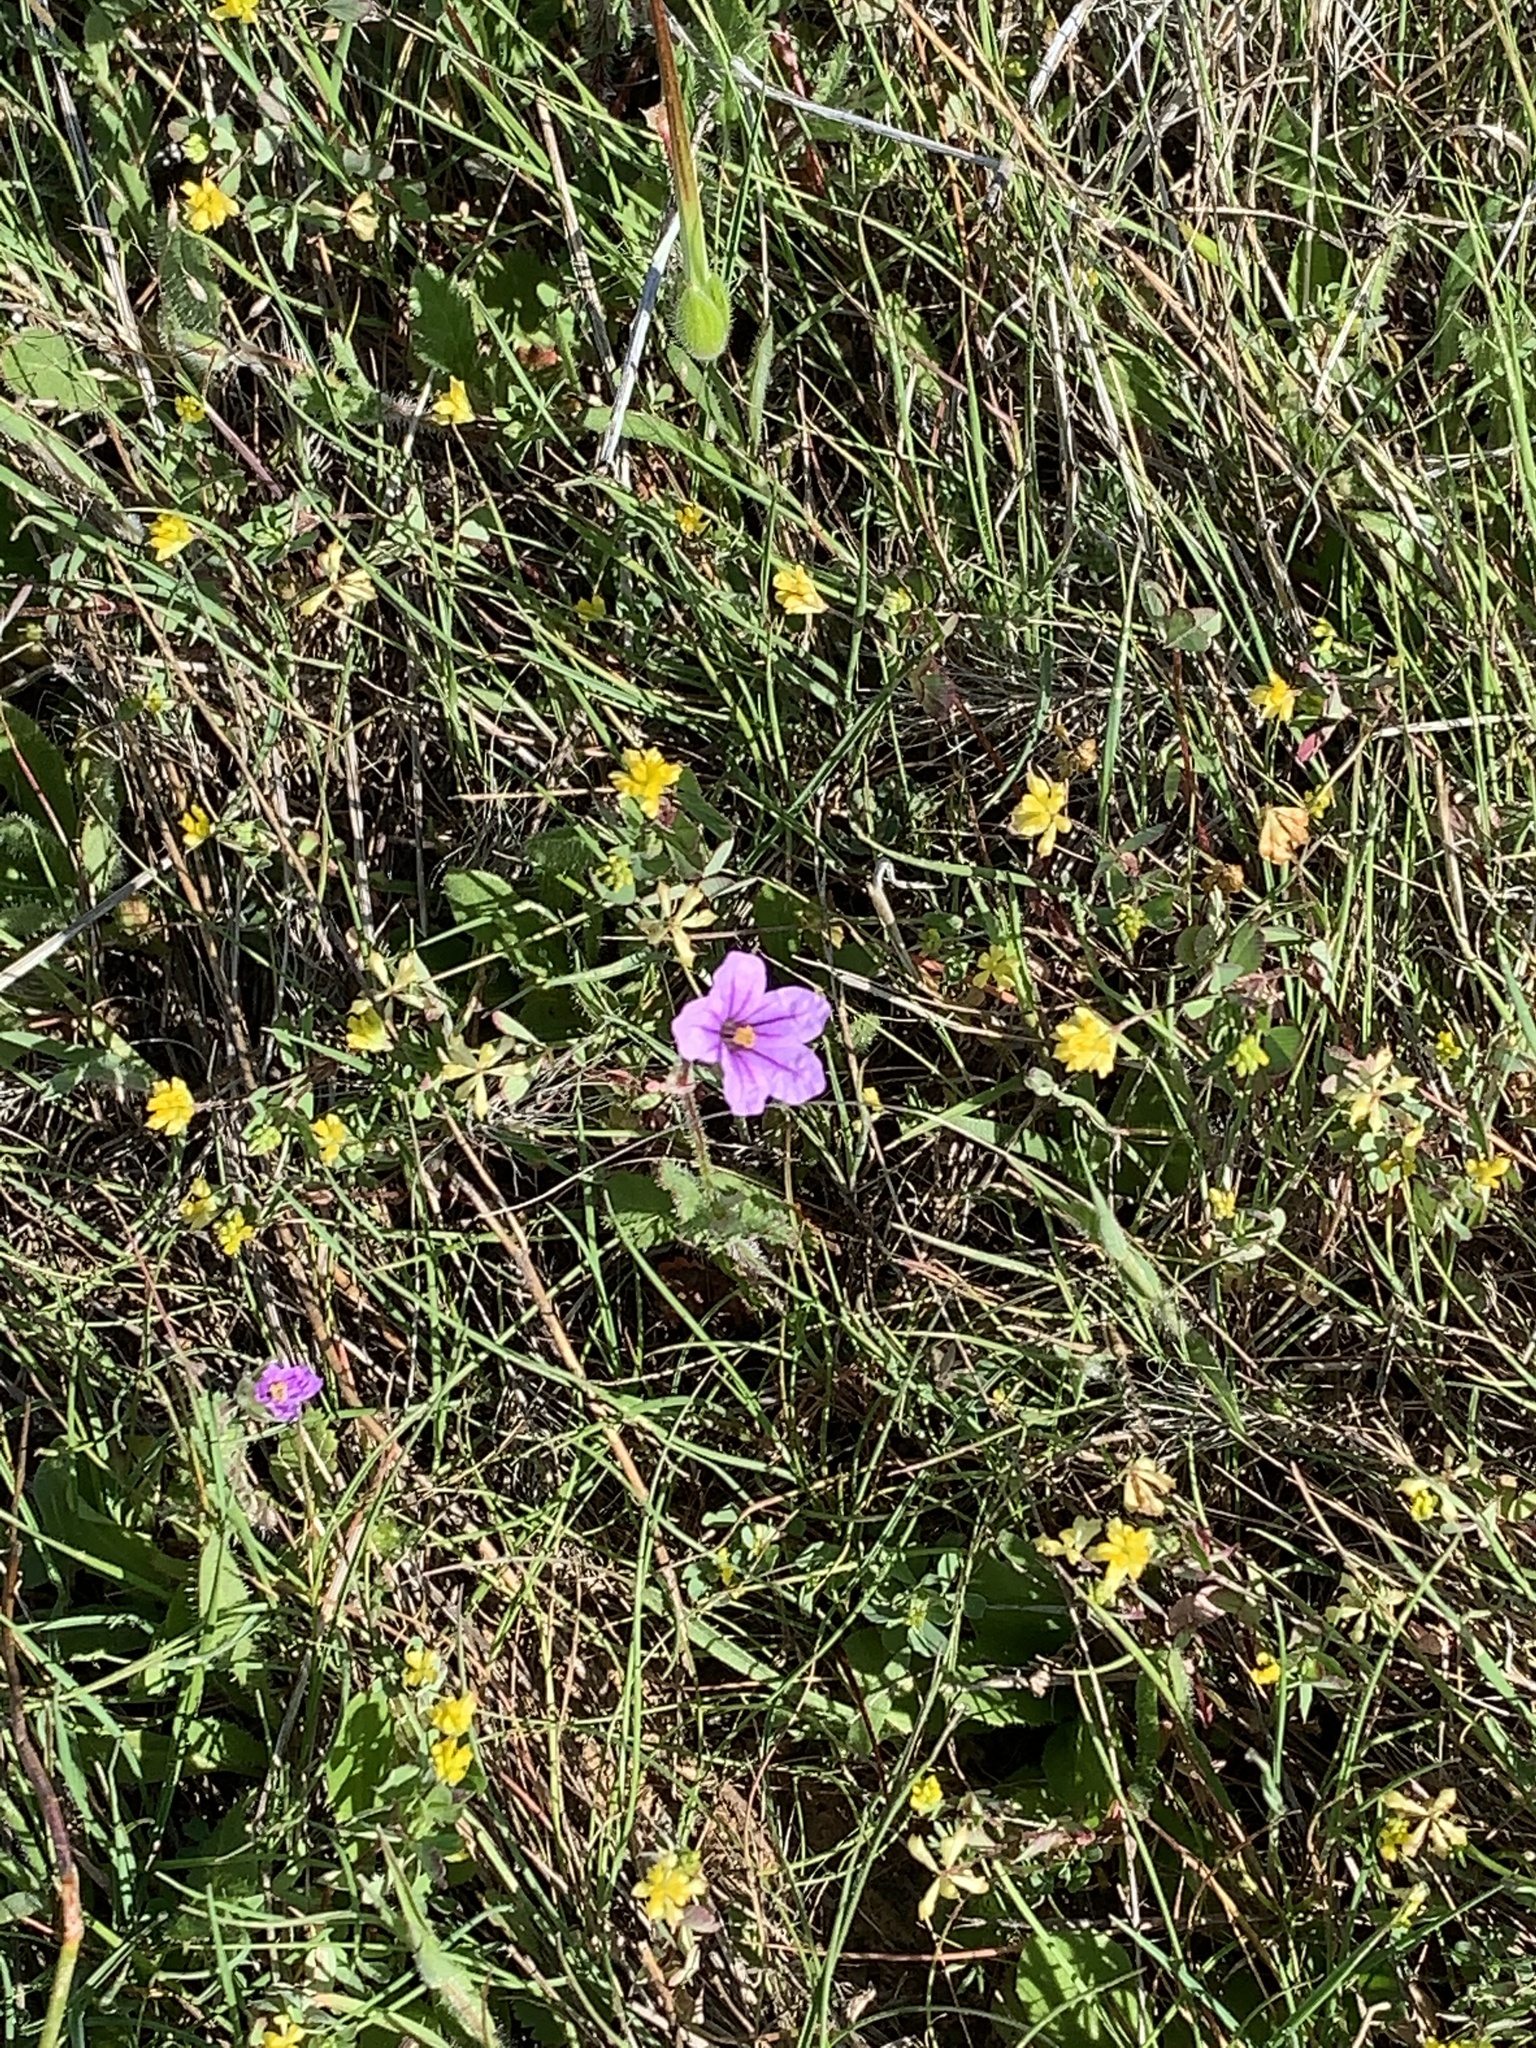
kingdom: Plantae
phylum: Tracheophyta
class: Magnoliopsida
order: Geraniales
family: Geraniaceae
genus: Erodium
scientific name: Erodium botrys
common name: Mediterranean stork's-bill
